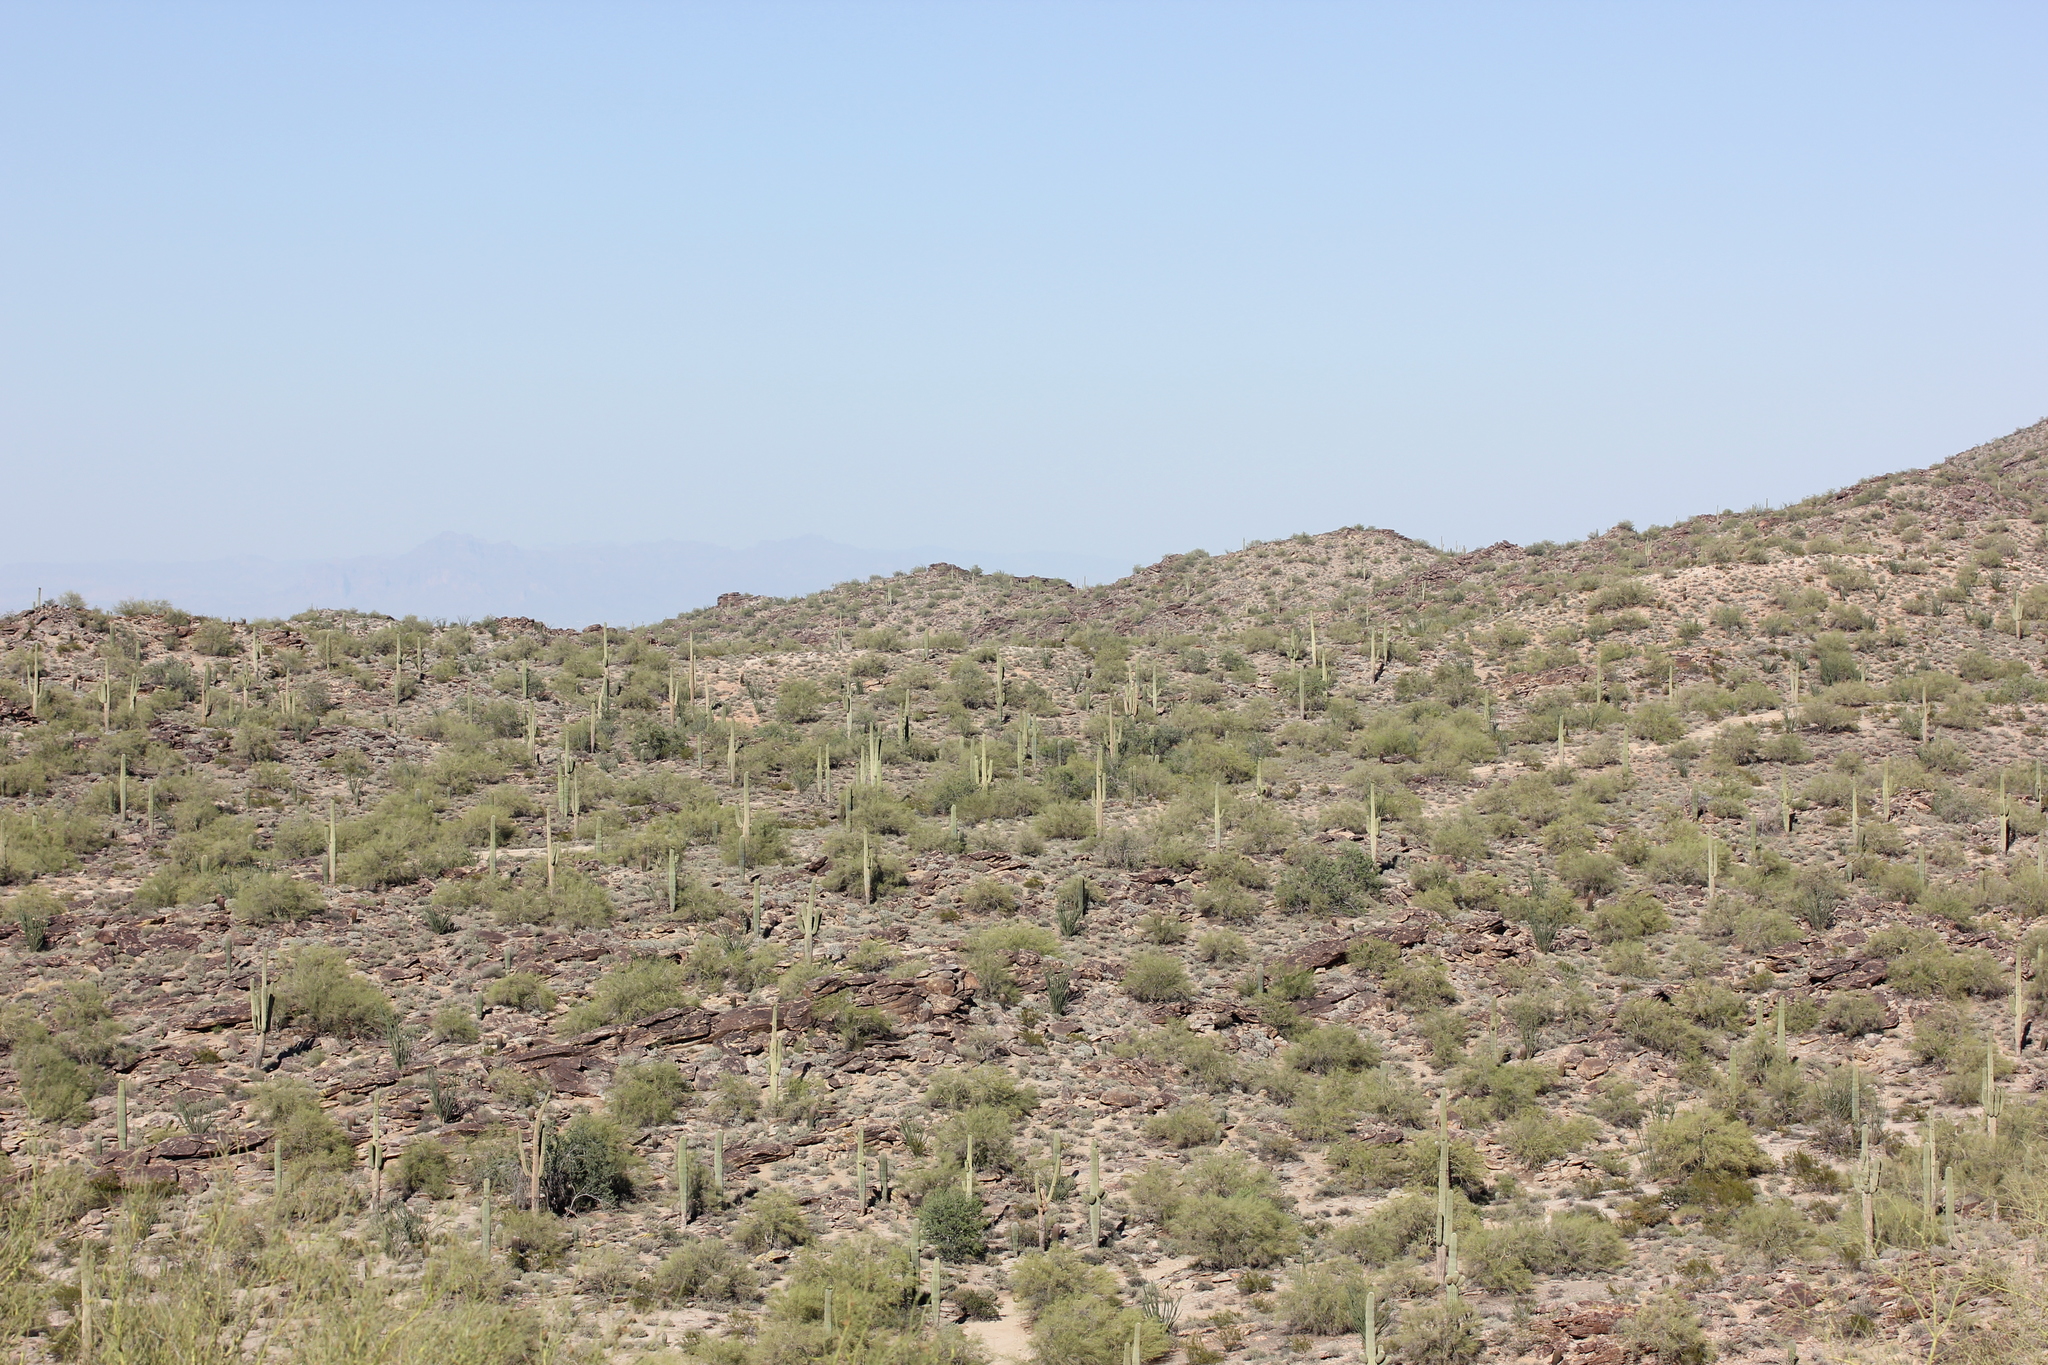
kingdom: Plantae
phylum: Tracheophyta
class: Magnoliopsida
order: Caryophyllales
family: Cactaceae
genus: Carnegiea
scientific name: Carnegiea gigantea
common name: Saguaro
